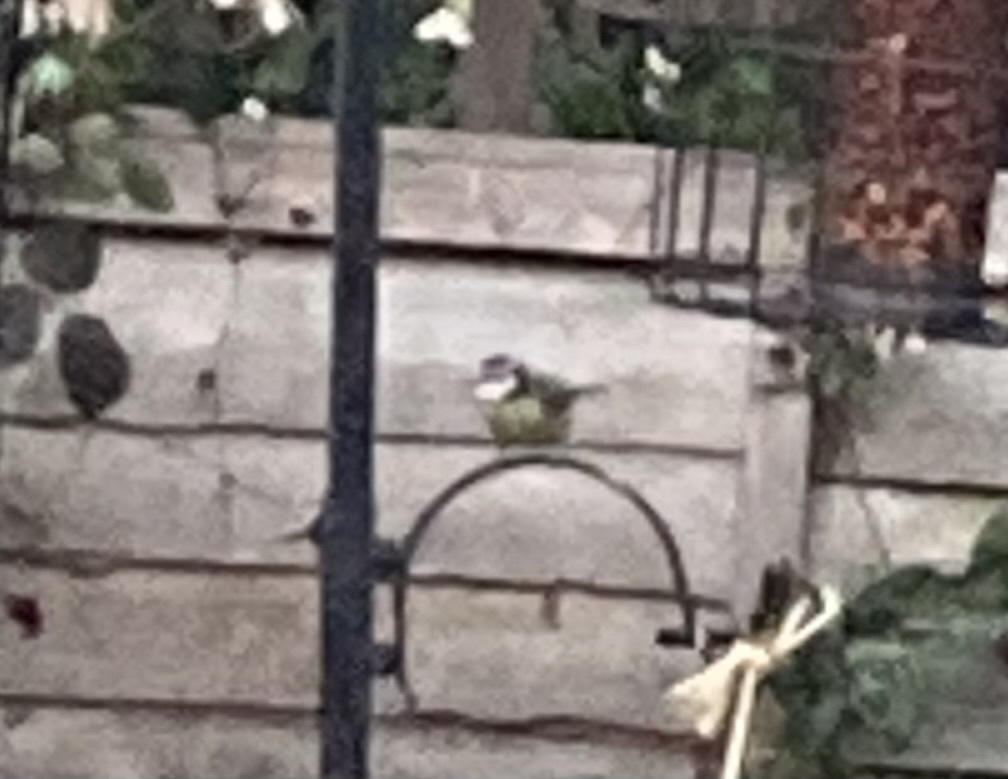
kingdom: Animalia
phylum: Chordata
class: Aves
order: Passeriformes
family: Paridae
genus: Cyanistes
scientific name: Cyanistes caeruleus
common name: Eurasian blue tit
